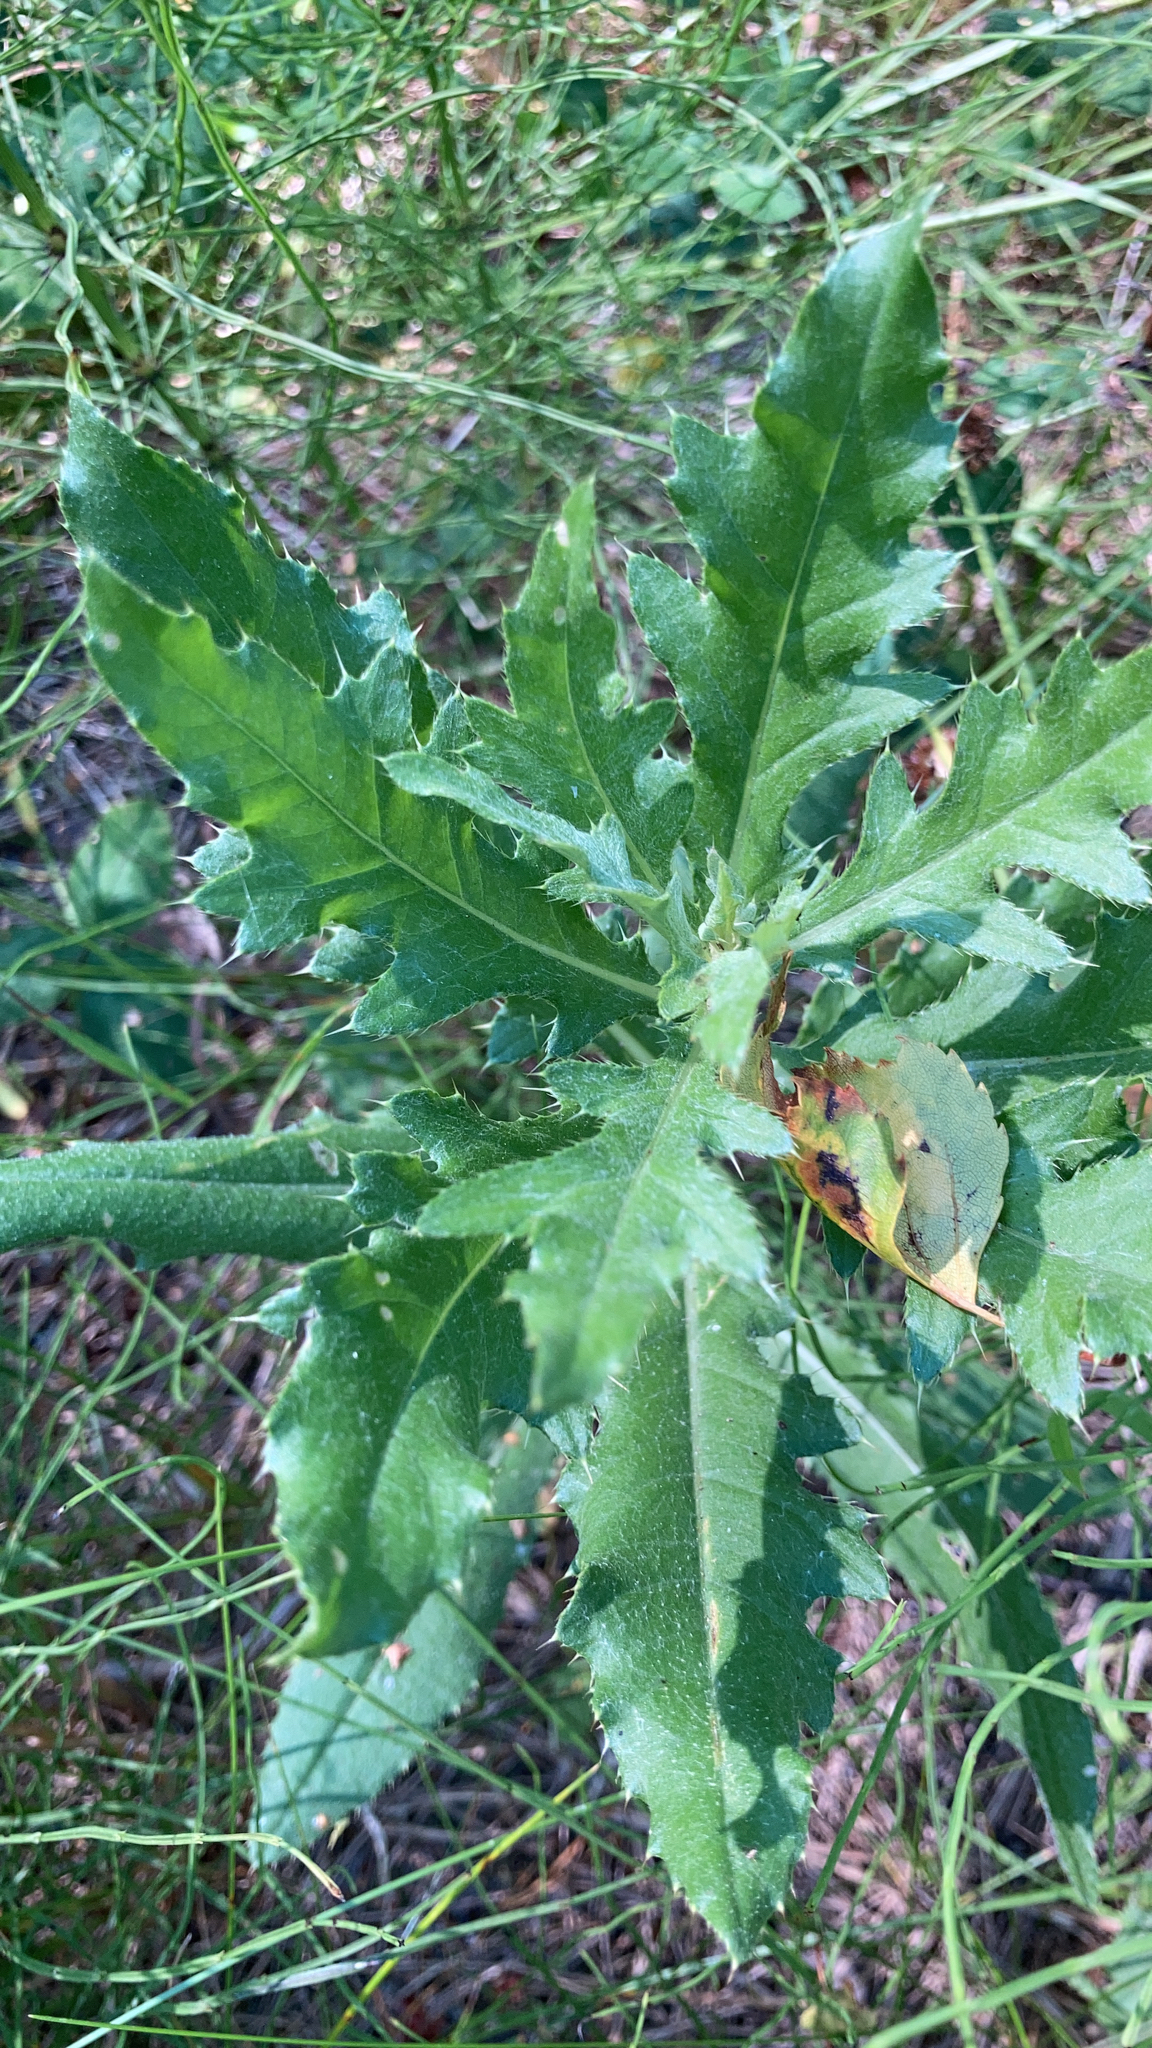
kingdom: Plantae
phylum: Tracheophyta
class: Magnoliopsida
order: Asterales
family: Asteraceae
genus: Cirsium
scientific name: Cirsium arvense
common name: Creeping thistle
